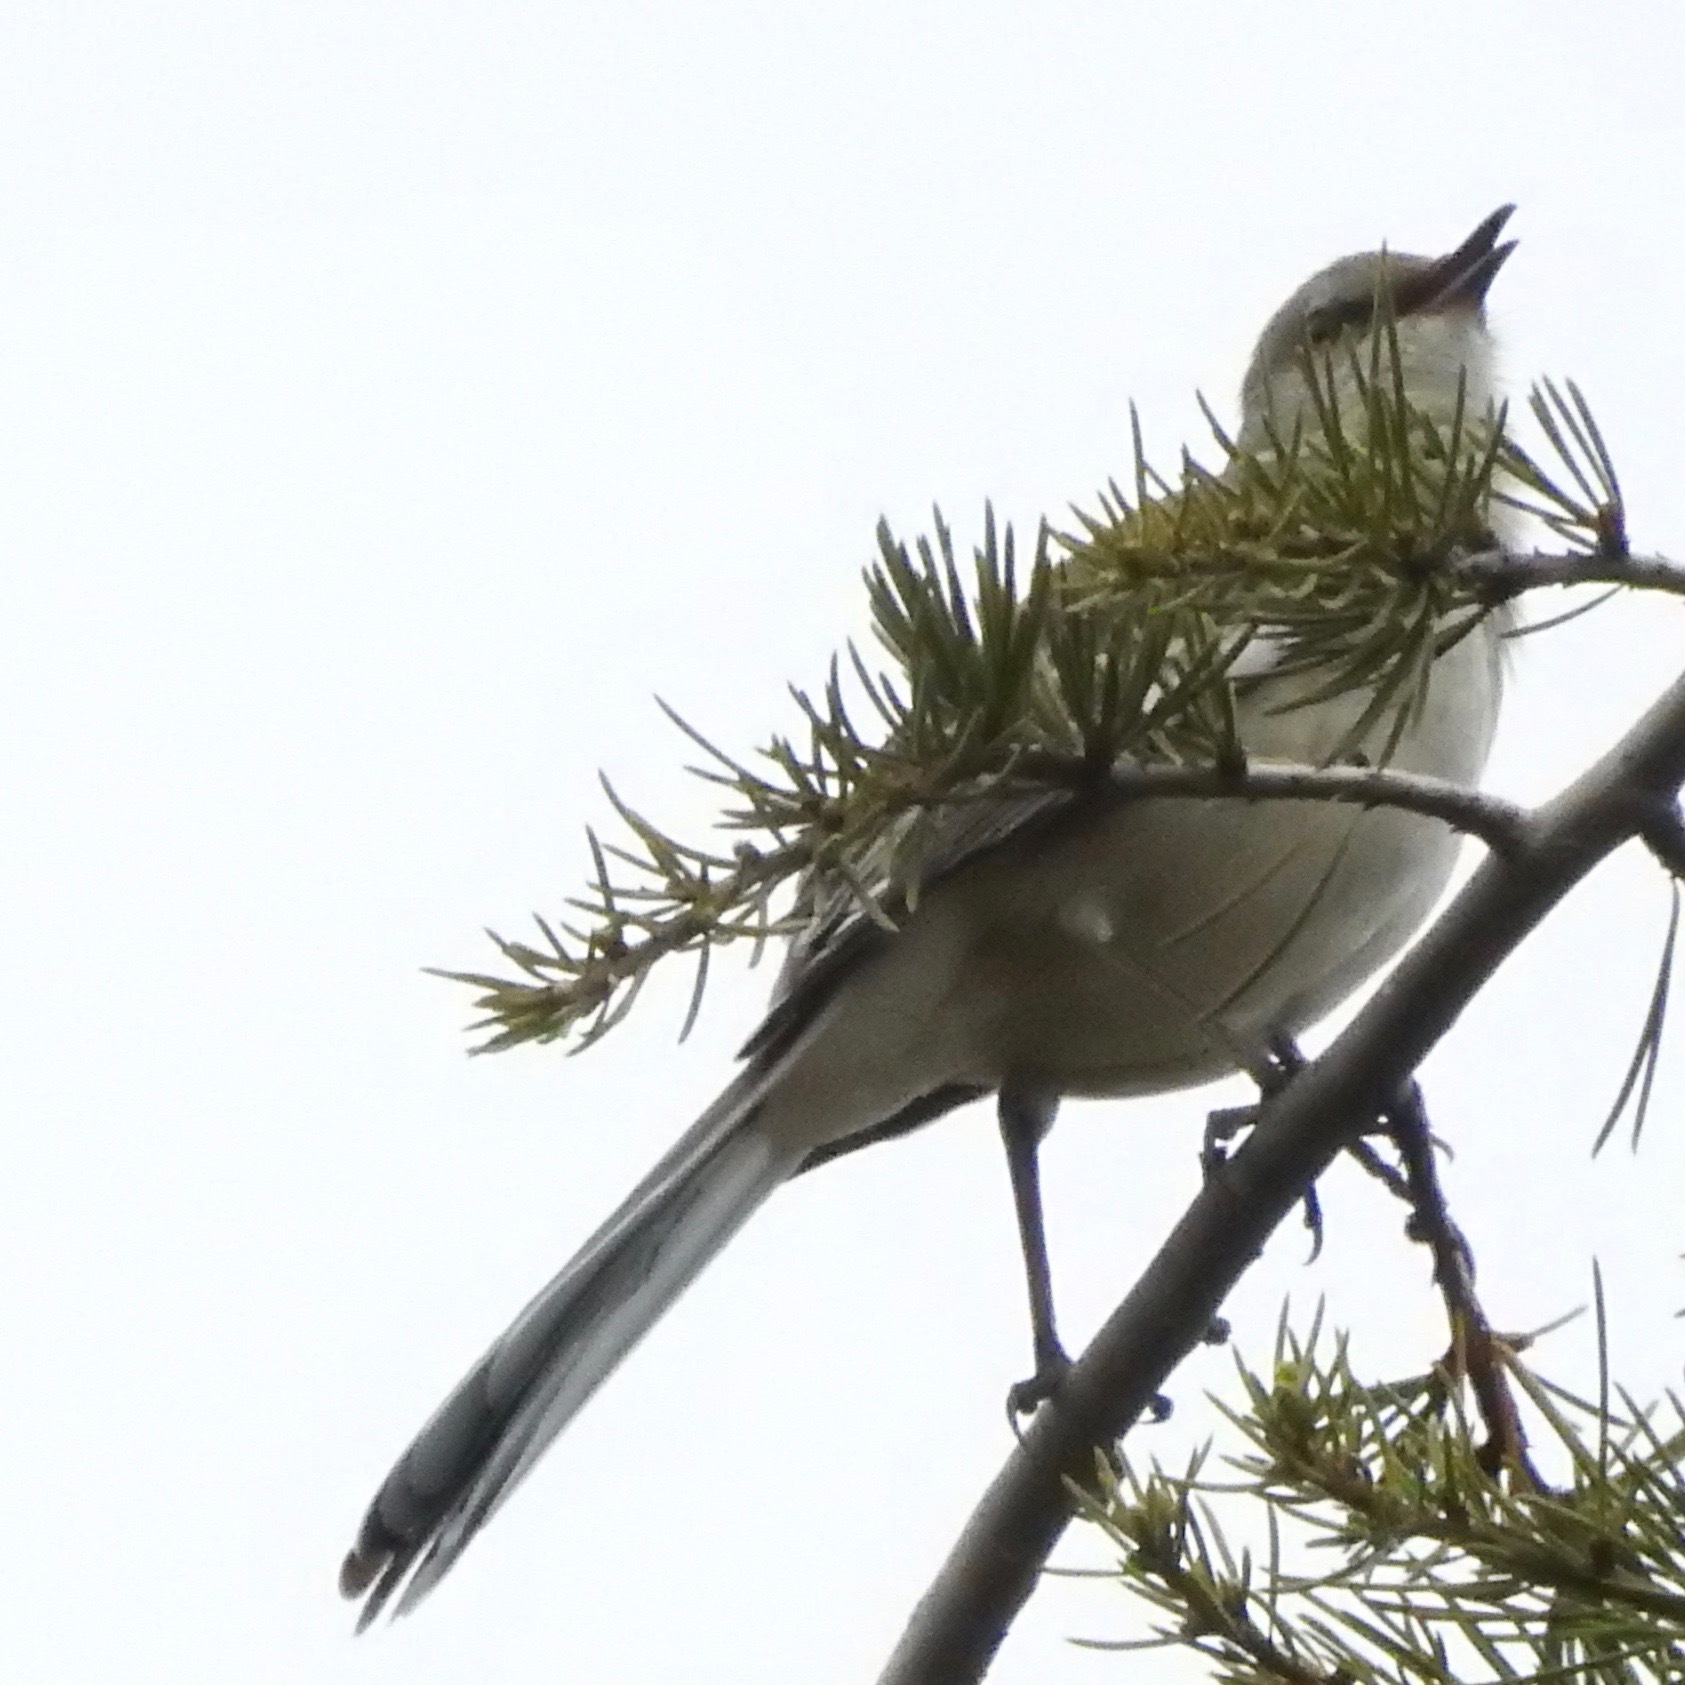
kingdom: Animalia
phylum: Chordata
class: Aves
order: Passeriformes
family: Mimidae
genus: Mimus
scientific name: Mimus polyglottos
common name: Northern mockingbird
